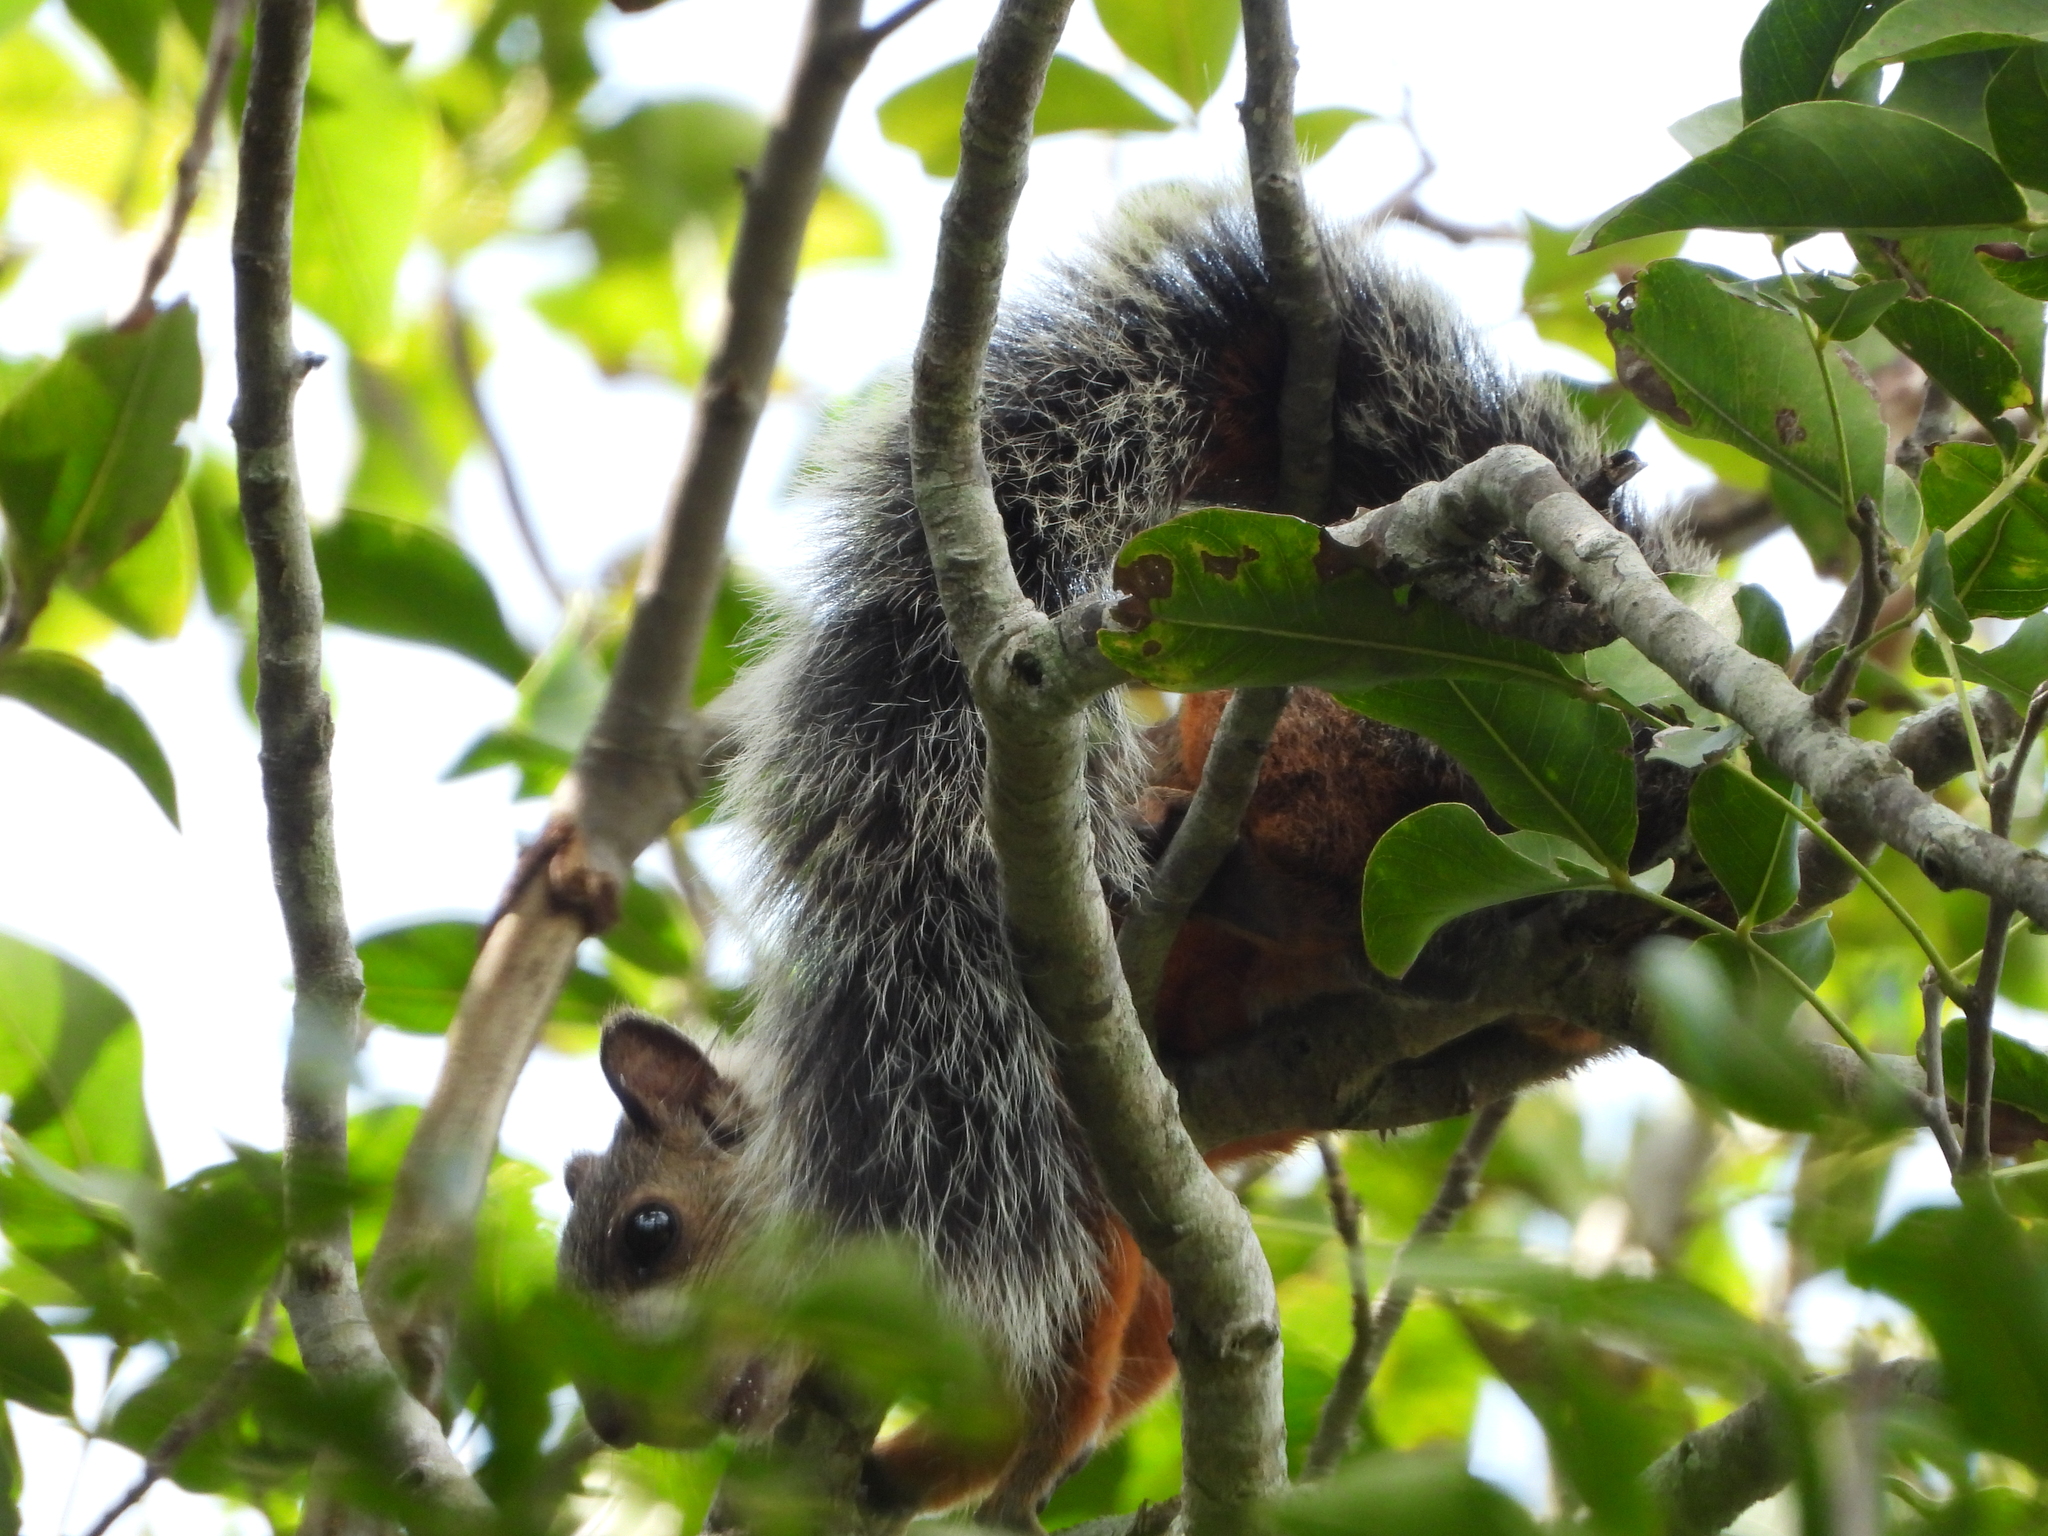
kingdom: Animalia
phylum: Chordata
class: Mammalia
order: Rodentia
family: Sciuridae
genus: Sciurus
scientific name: Sciurus variegatoides
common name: Variegated squirrel
